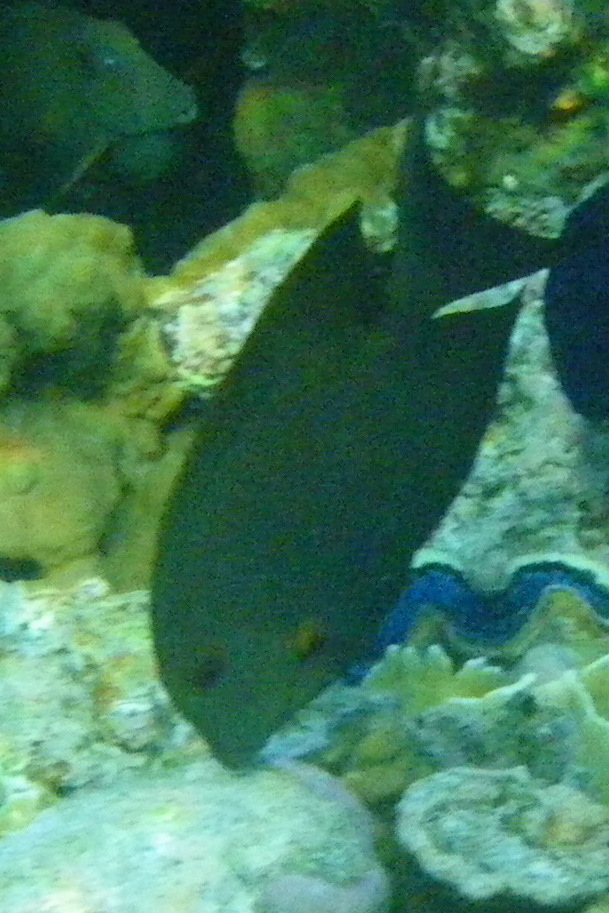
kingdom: Animalia
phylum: Chordata
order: Perciformes
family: Acanthuridae
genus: Ctenochaetus
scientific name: Ctenochaetus striatus
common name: Bristle-toothed surgeonfish
